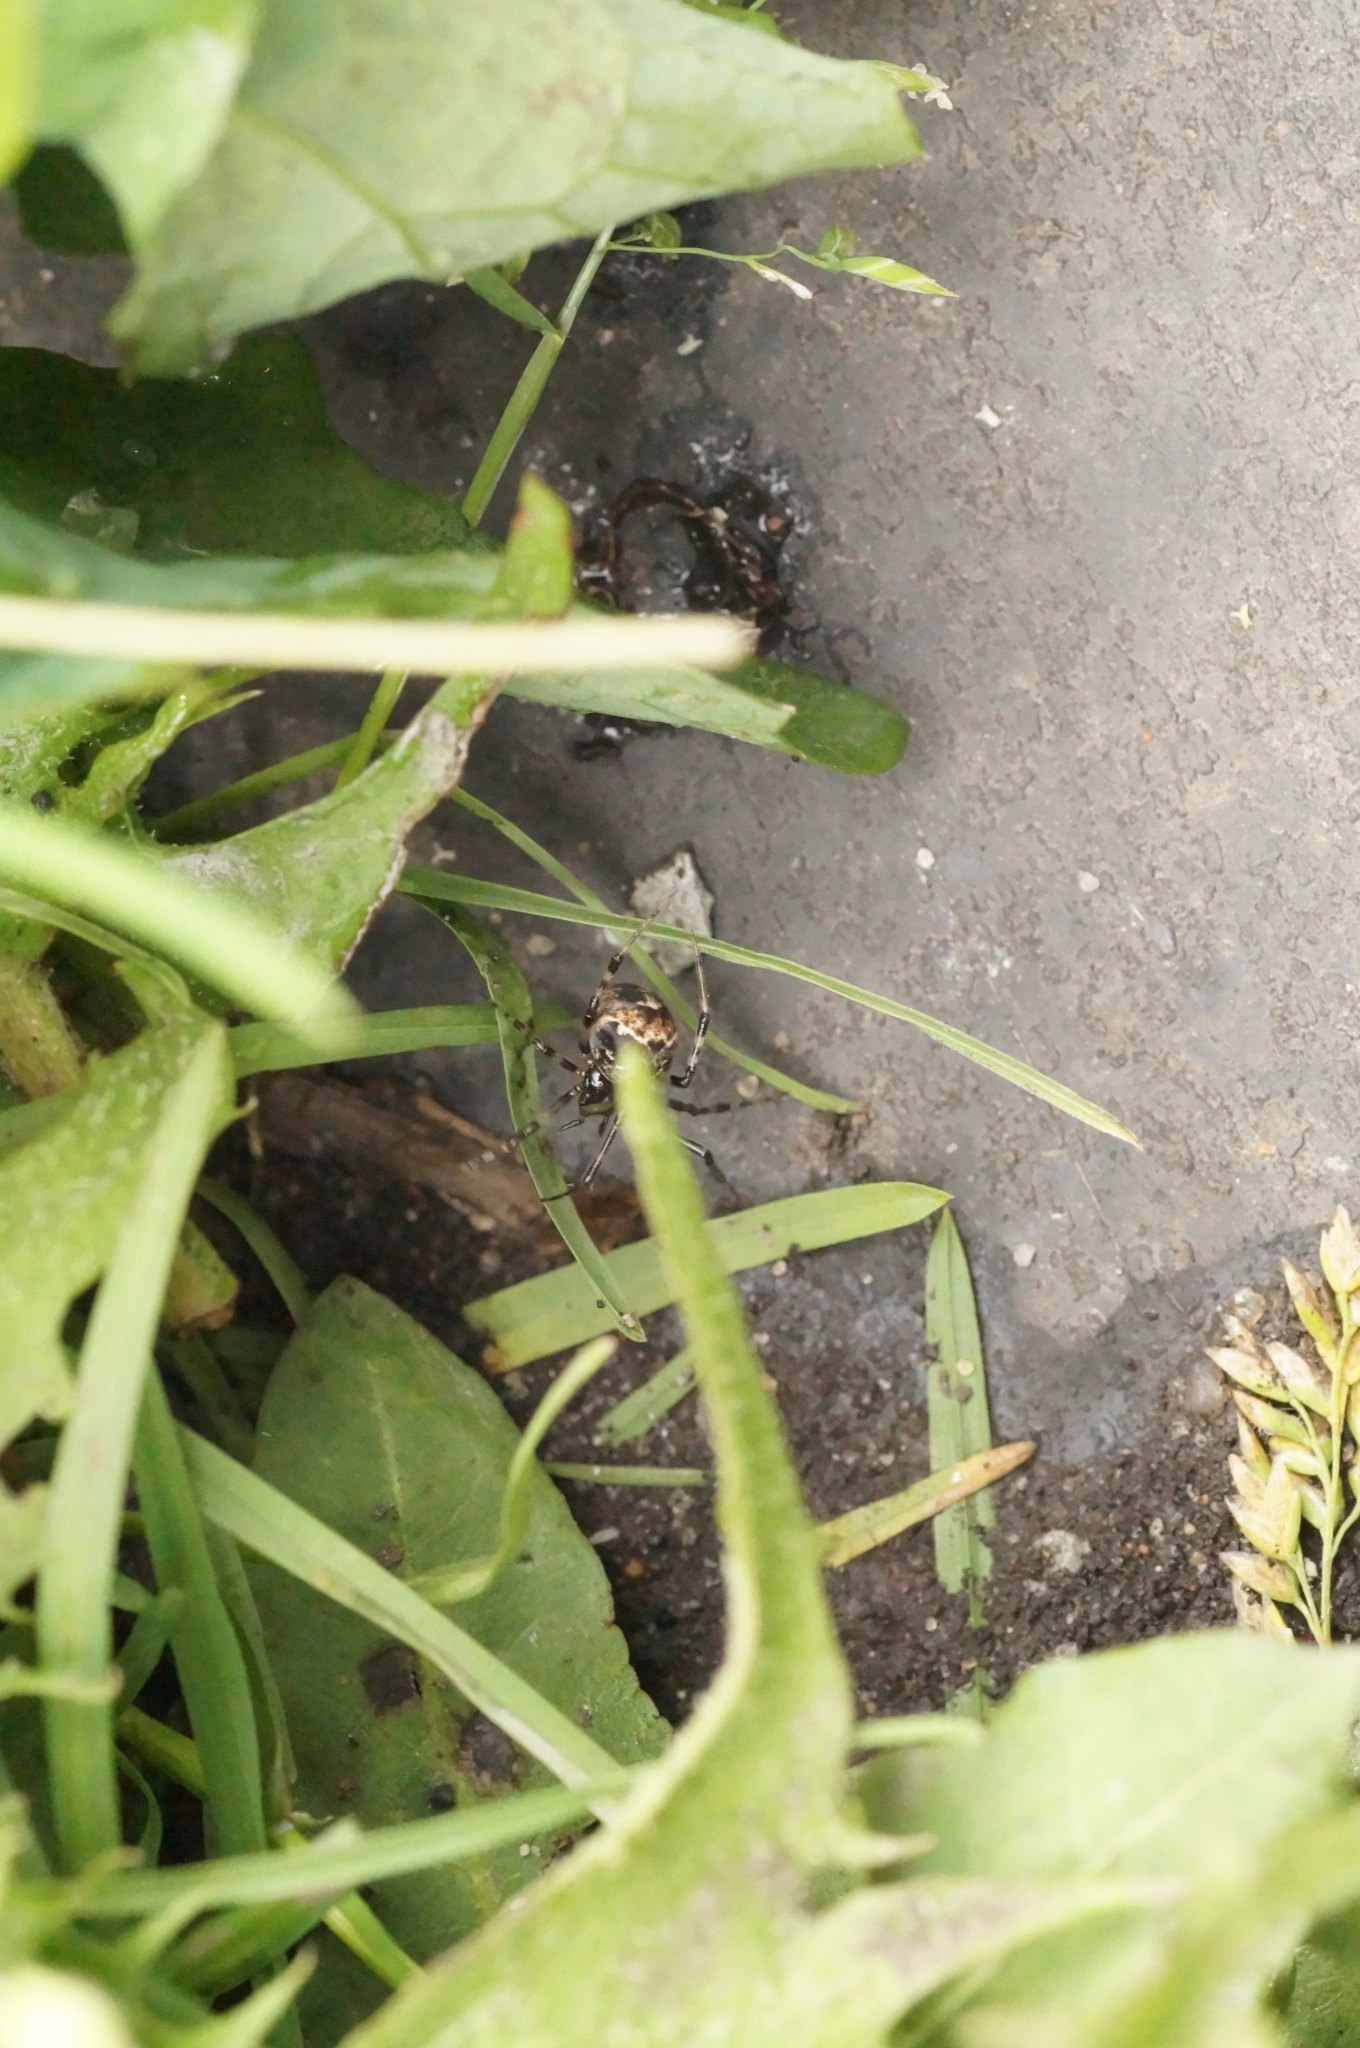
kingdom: Animalia
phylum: Arthropoda
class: Arachnida
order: Araneae
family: Theridiidae
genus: Parasteatoda
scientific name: Parasteatoda tabulata
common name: Comb-footed spider
